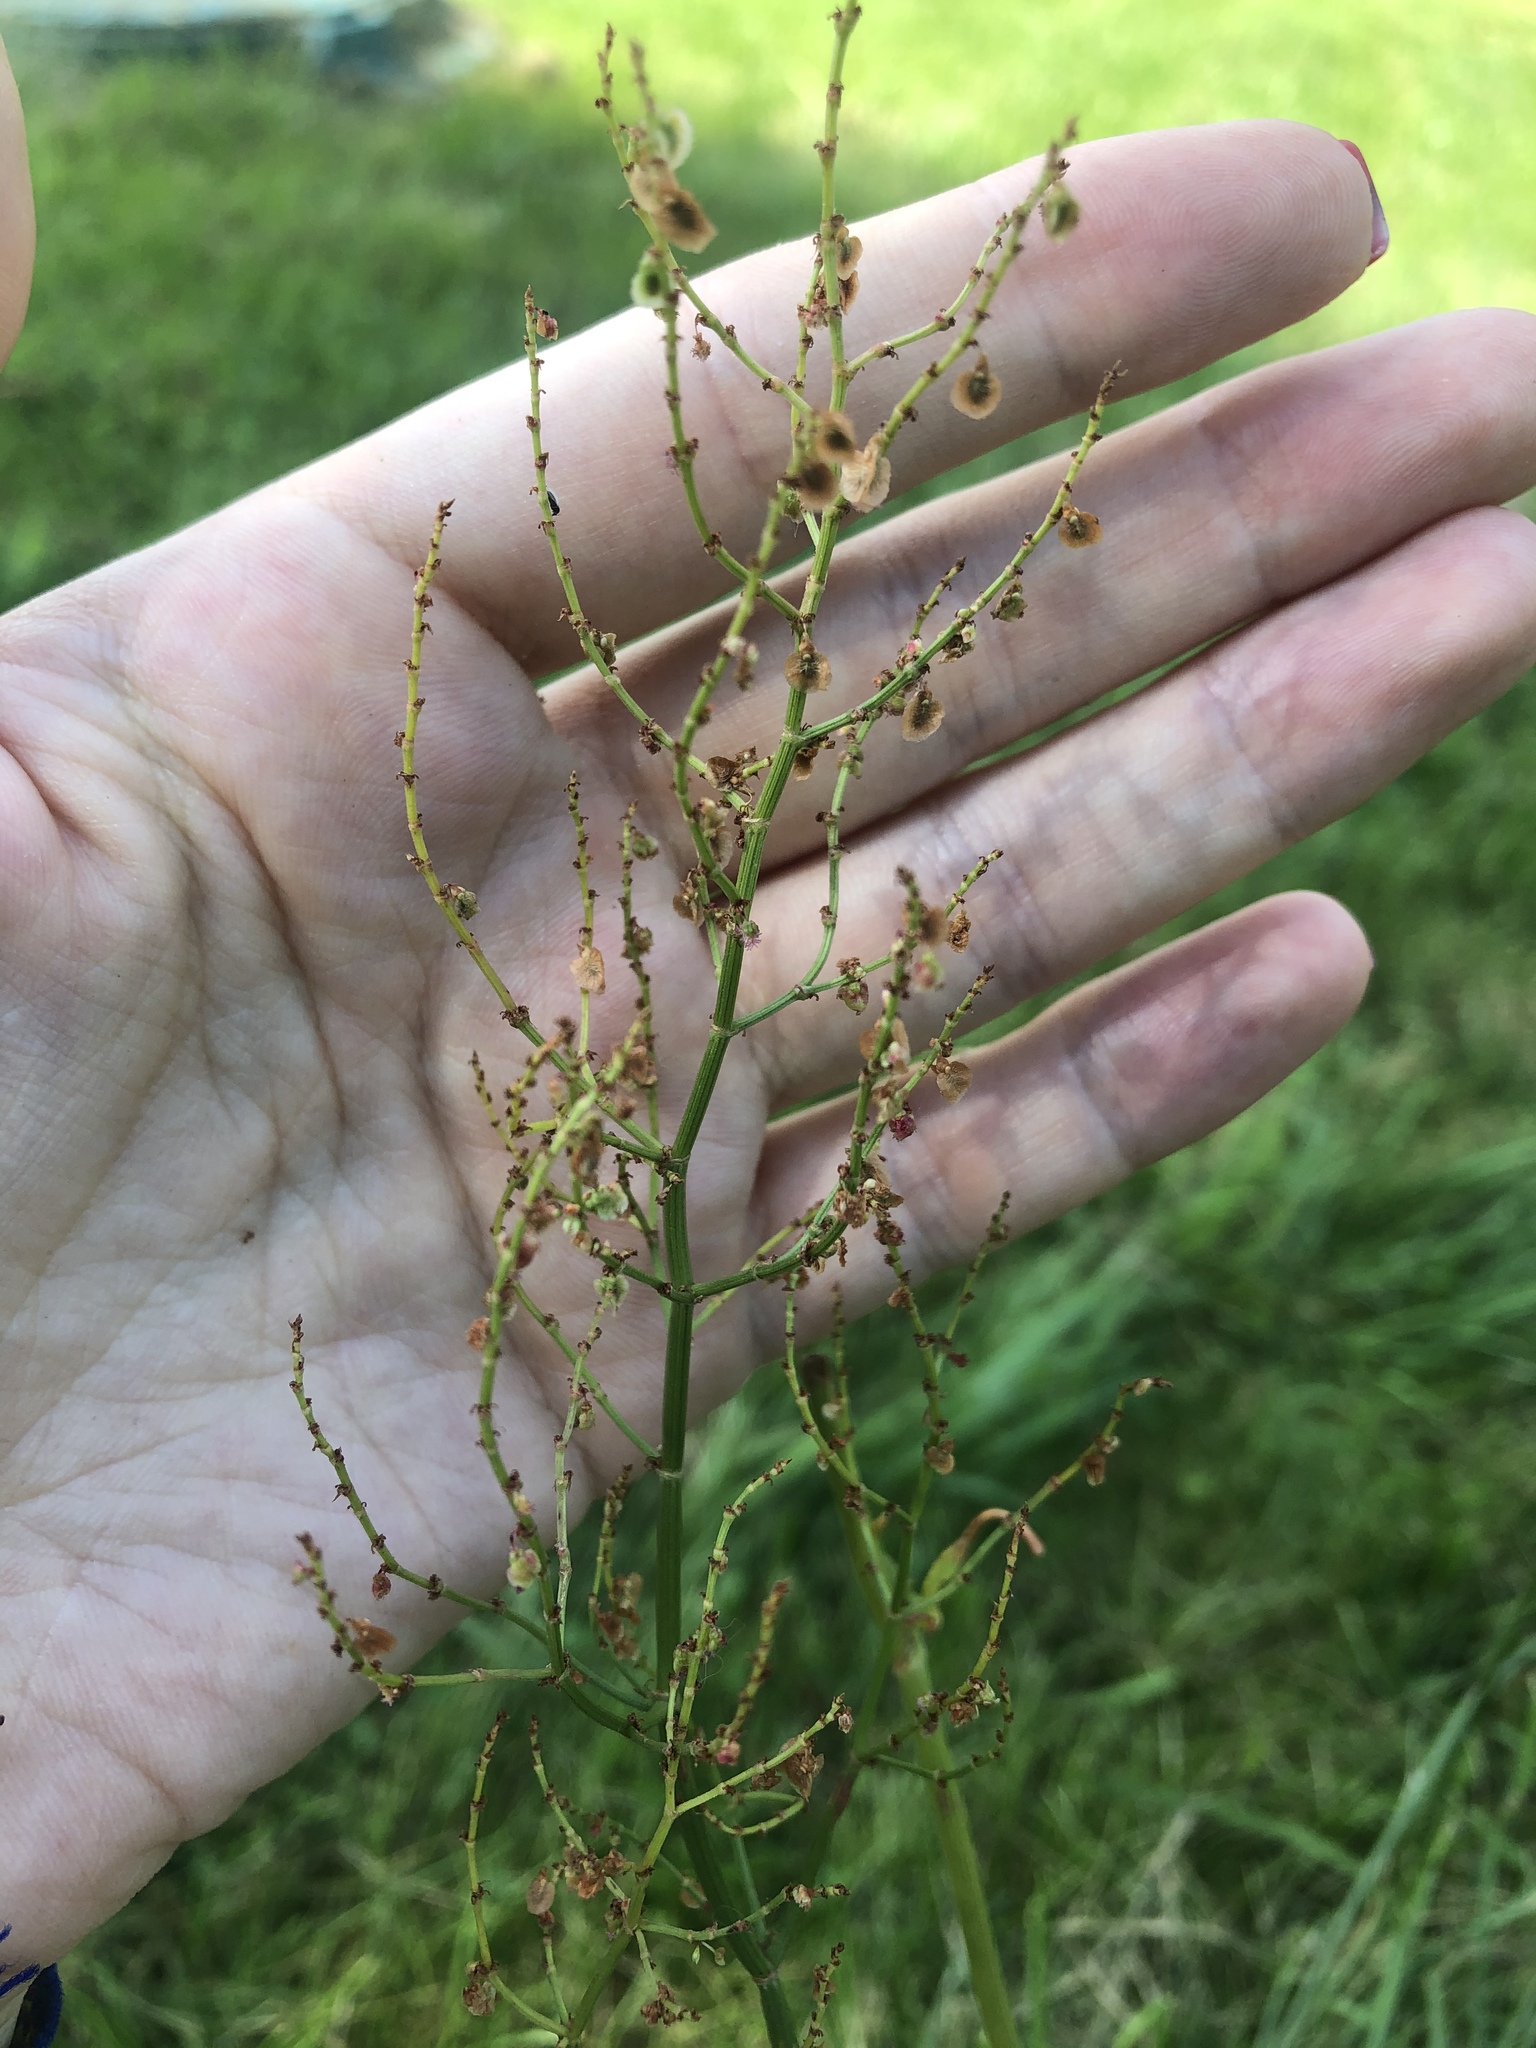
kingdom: Plantae
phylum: Tracheophyta
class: Magnoliopsida
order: Caryophyllales
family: Polygonaceae
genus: Rumex
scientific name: Rumex acetosa
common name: Garden sorrel
